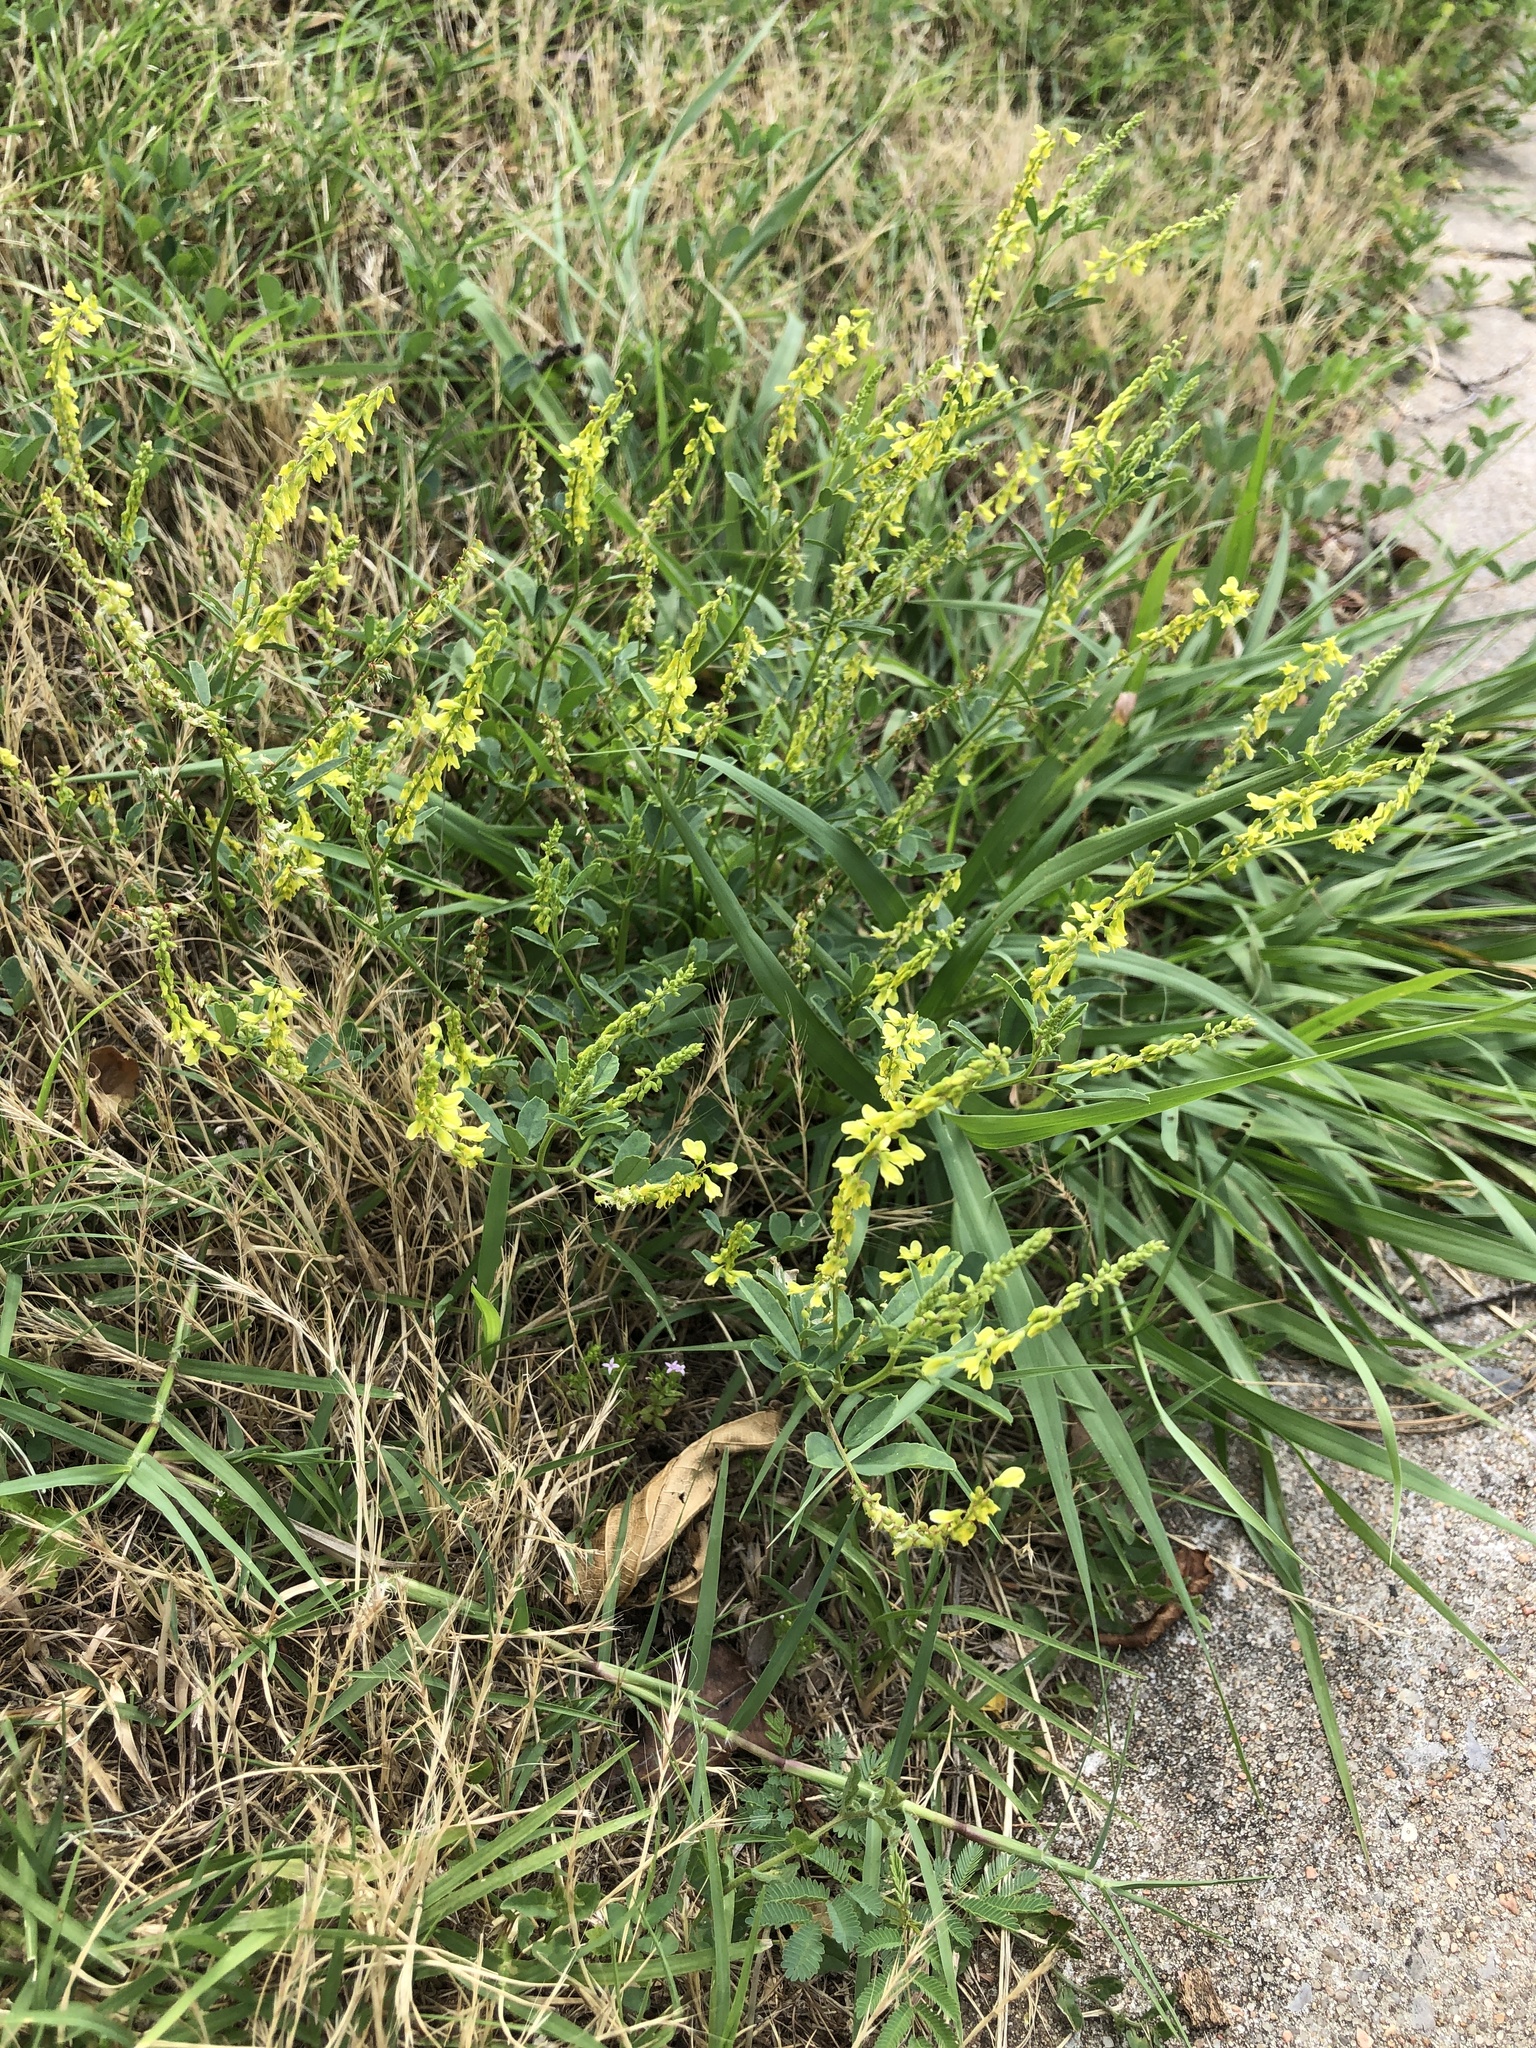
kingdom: Plantae
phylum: Tracheophyta
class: Magnoliopsida
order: Fabales
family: Fabaceae
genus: Melilotus
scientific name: Melilotus officinalis
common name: Sweetclover
